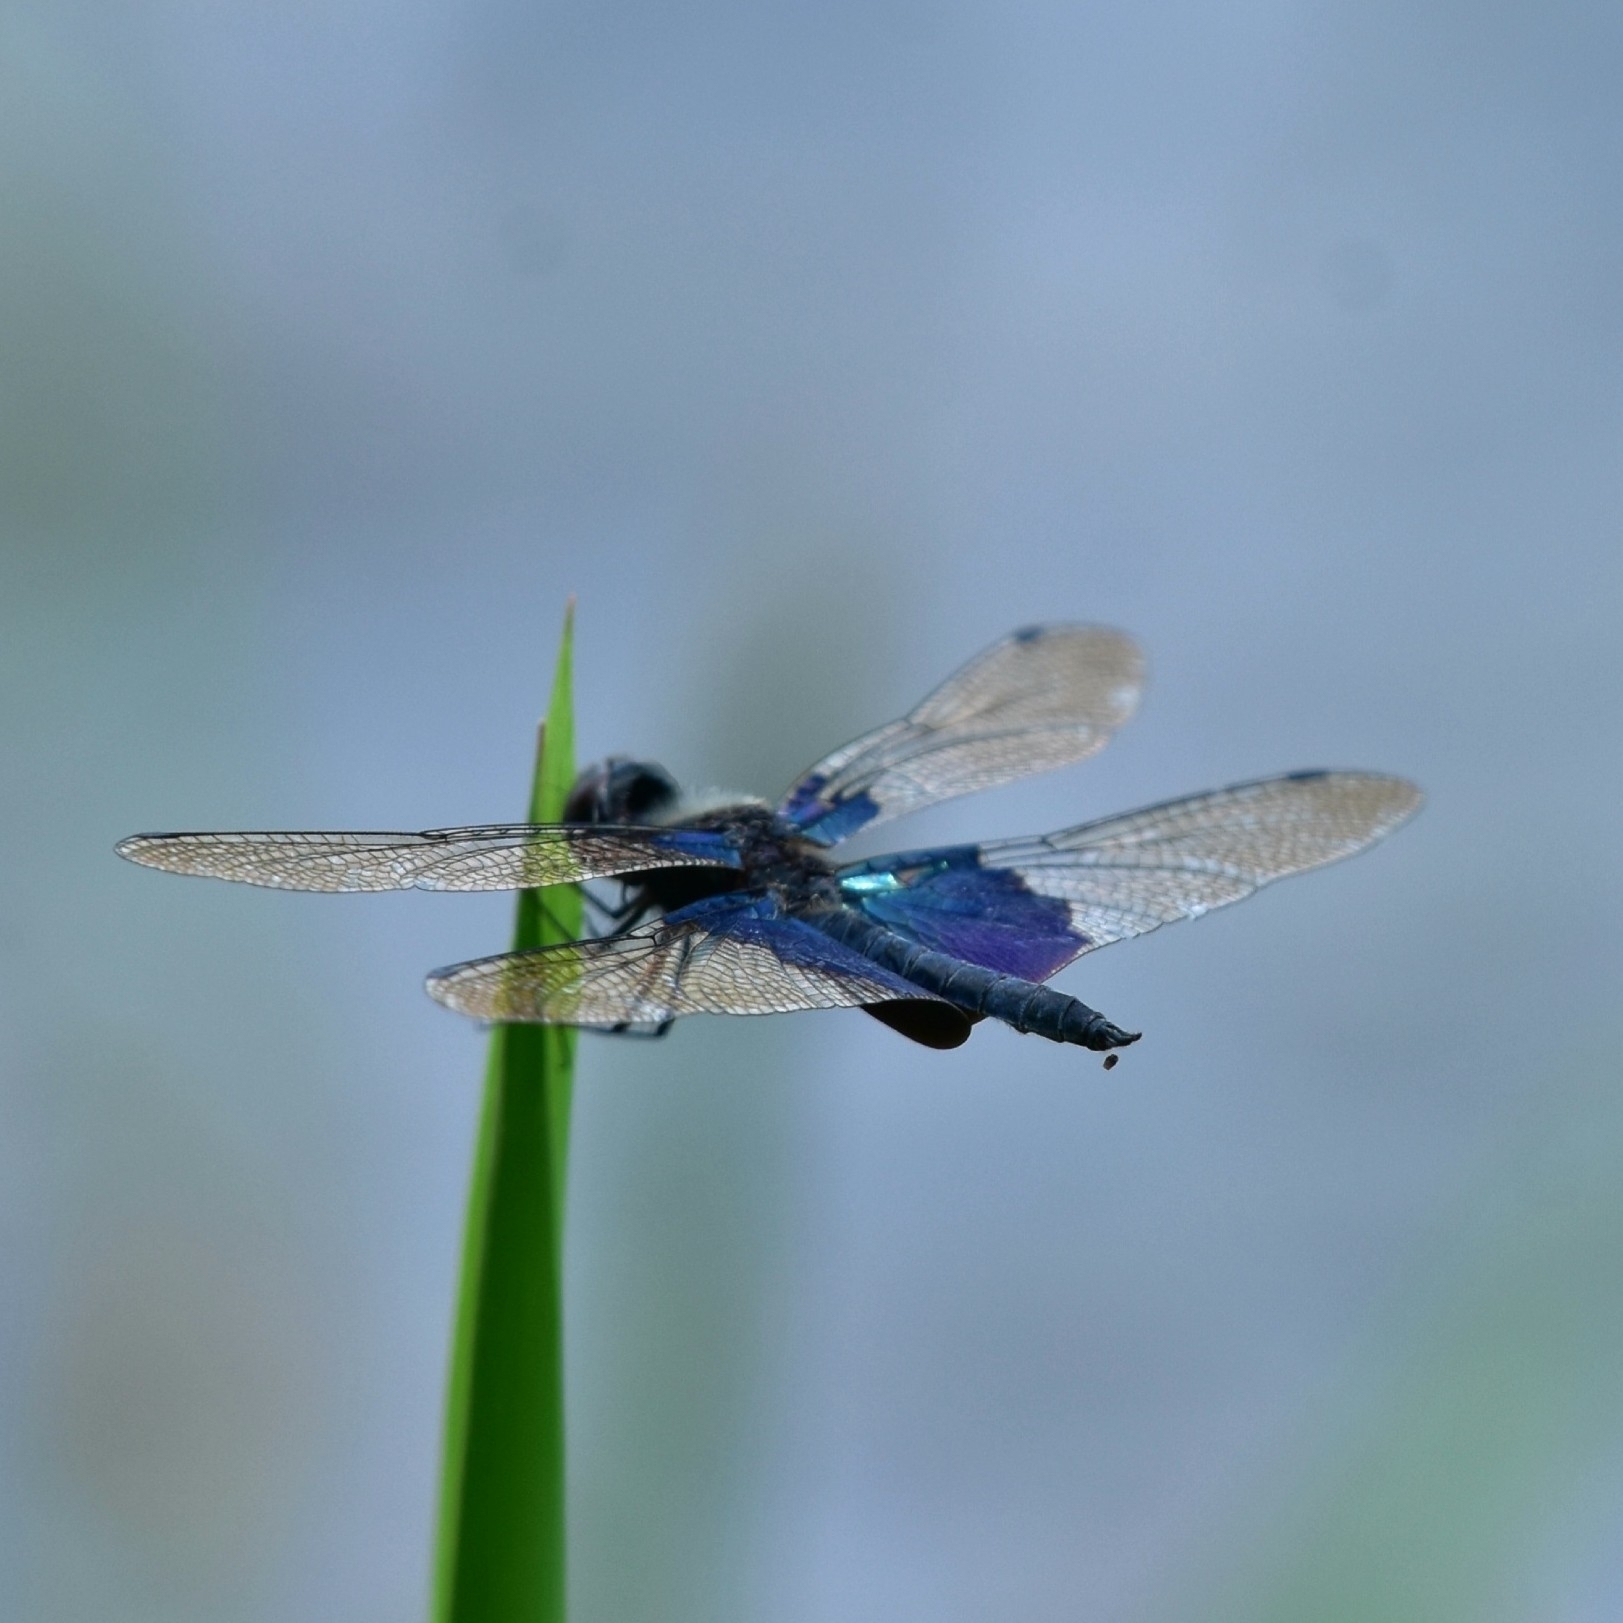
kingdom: Animalia
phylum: Arthropoda
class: Insecta
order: Odonata
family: Libellulidae
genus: Rhyothemis
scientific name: Rhyothemis triangularis
